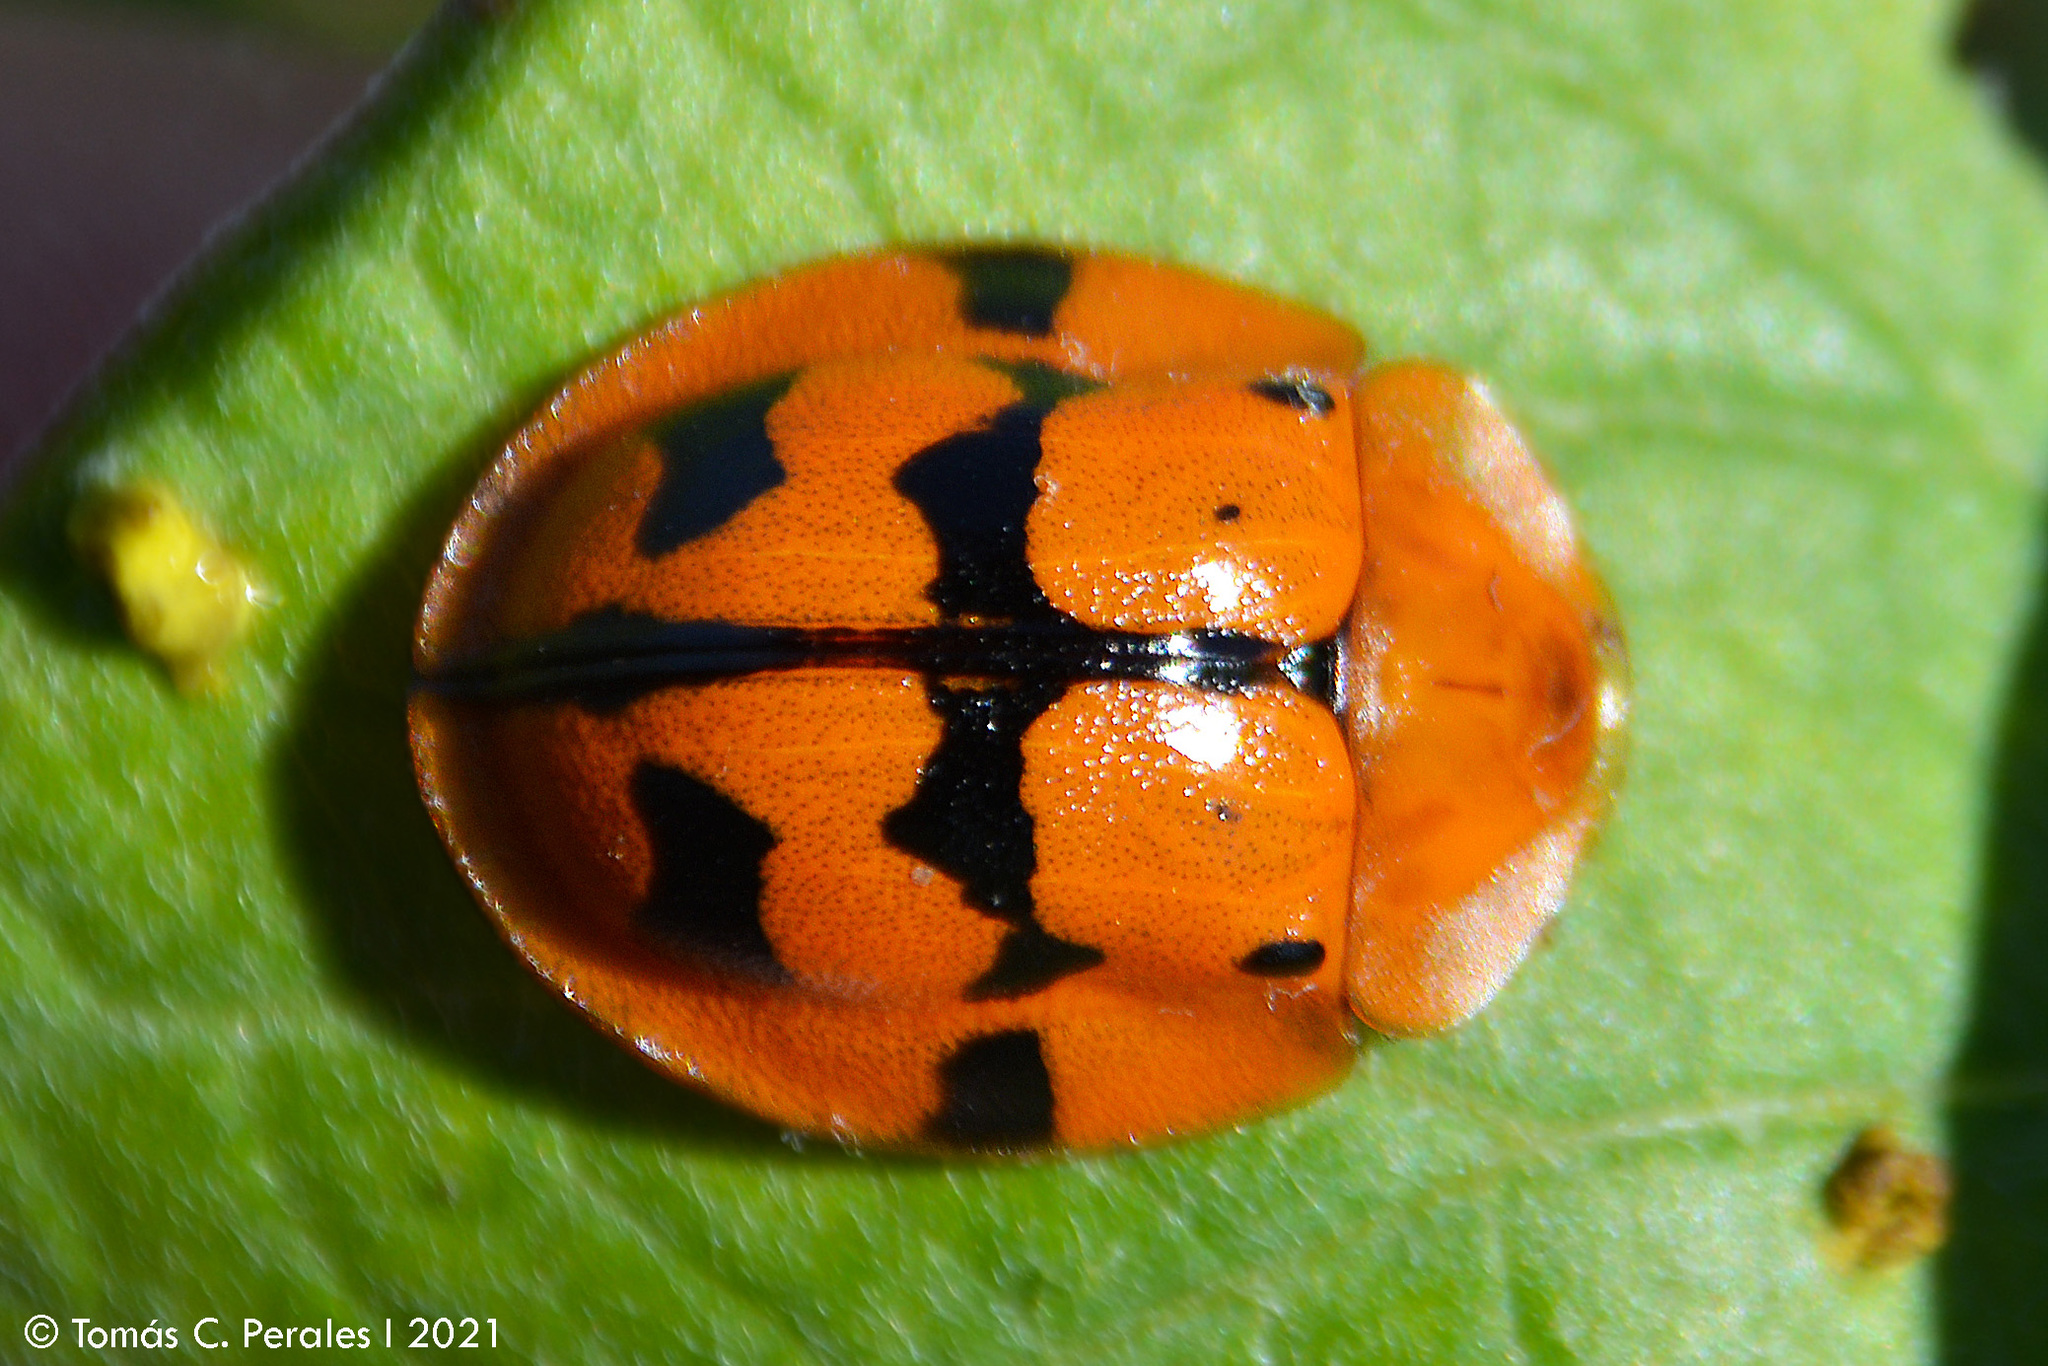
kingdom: Animalia
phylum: Arthropoda
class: Insecta
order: Coleoptera
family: Chrysomelidae
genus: Botanochara
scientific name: Botanochara pantherina
